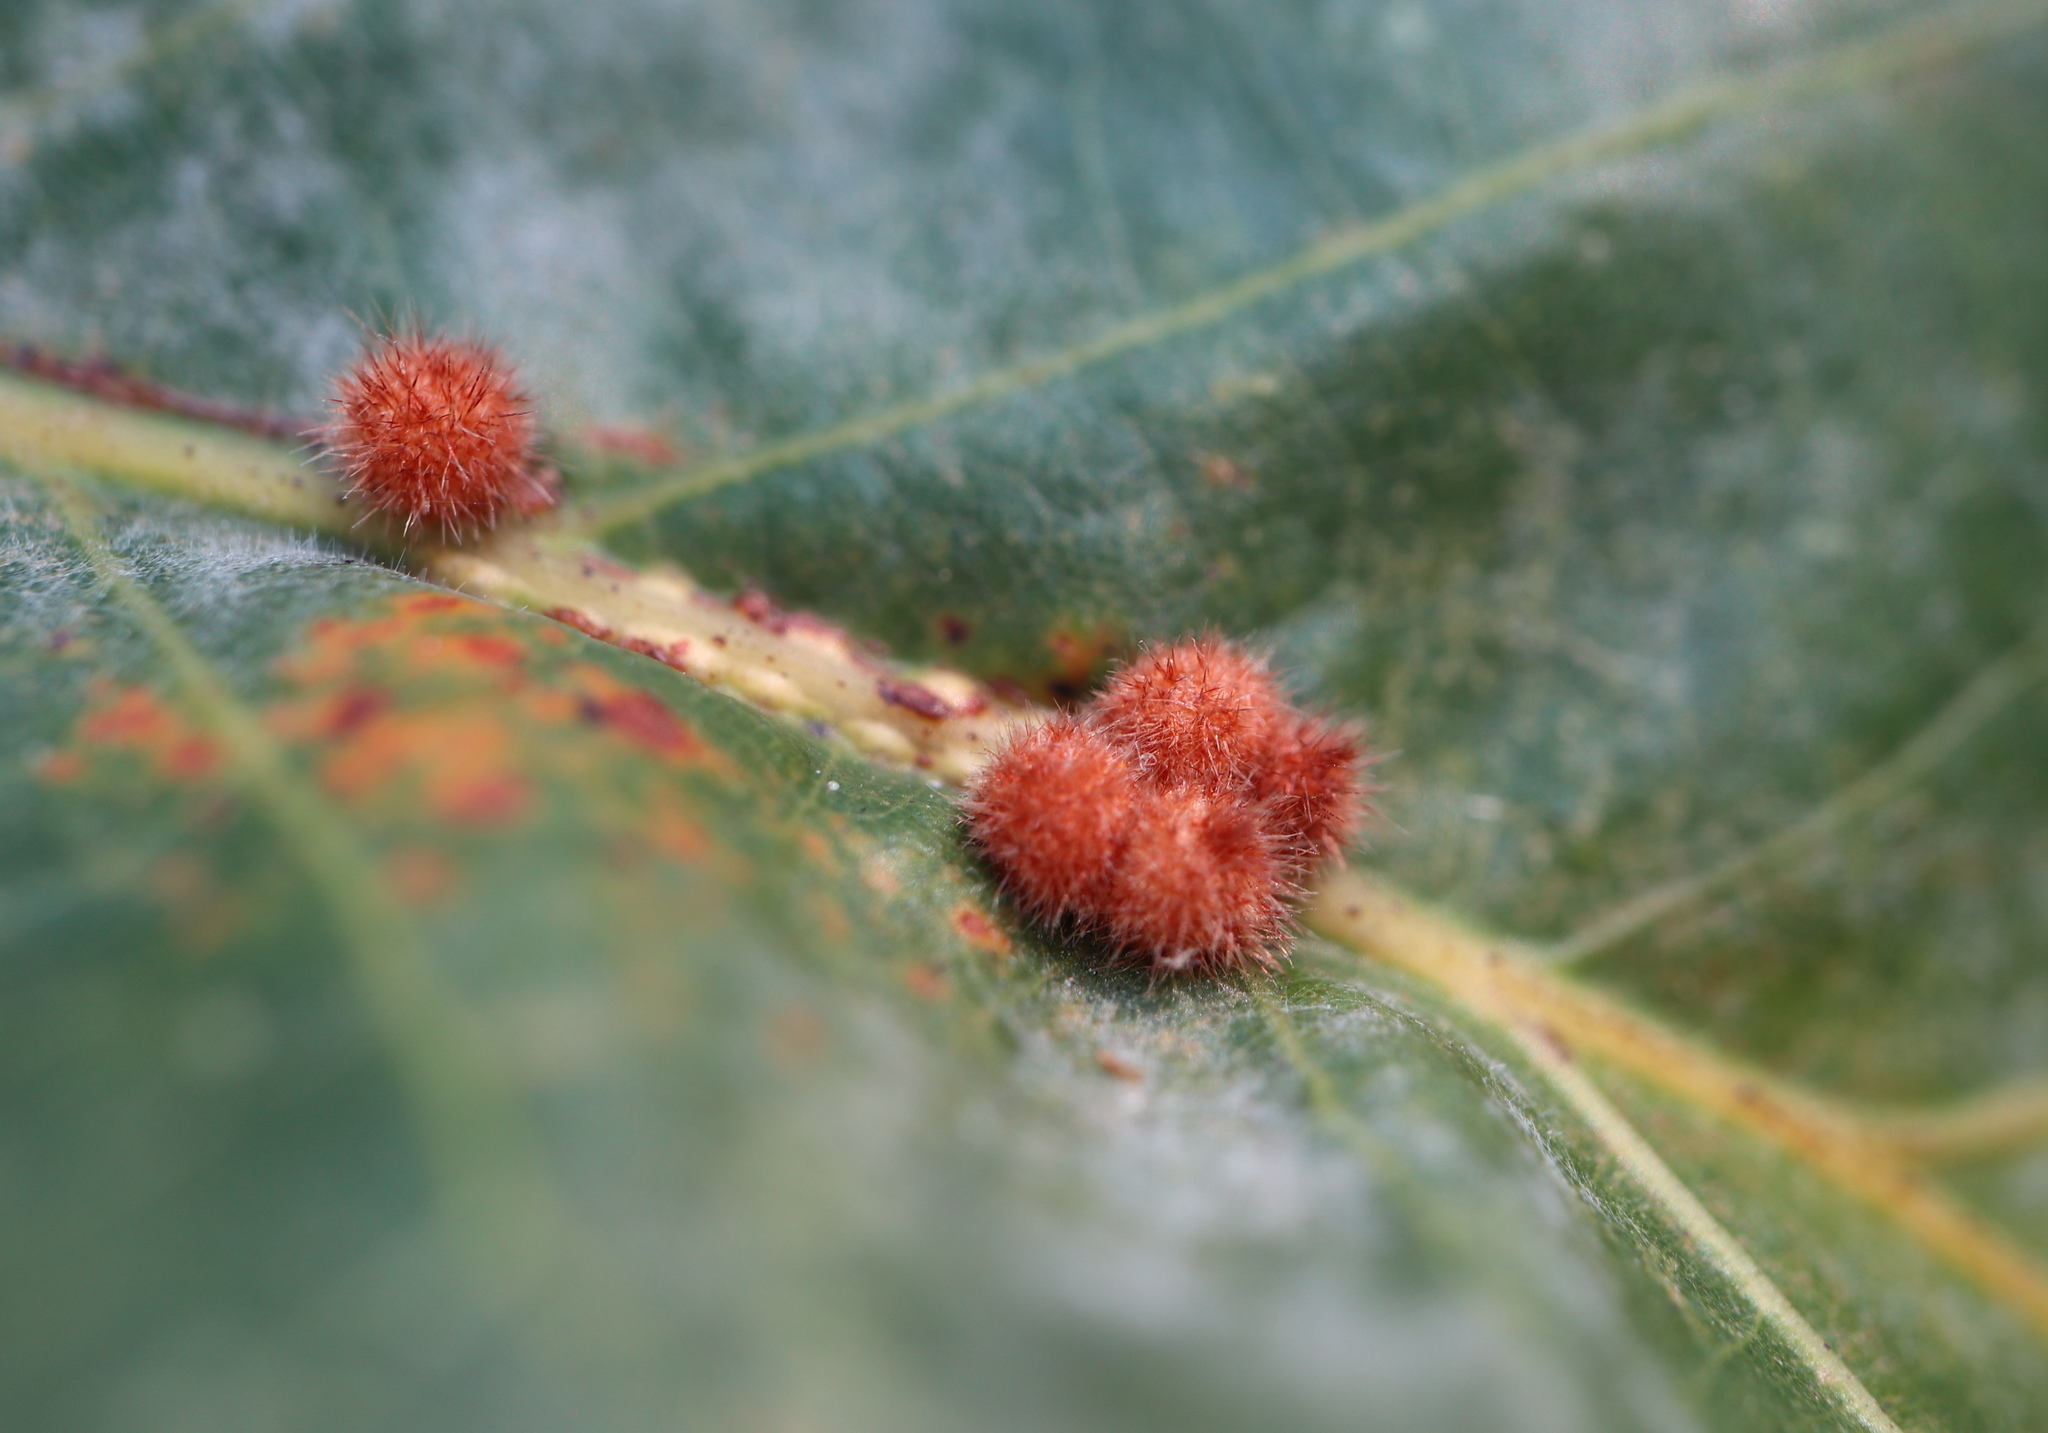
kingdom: Animalia
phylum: Arthropoda
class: Insecta
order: Hymenoptera
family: Cynipidae
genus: Andricus
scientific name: Andricus
